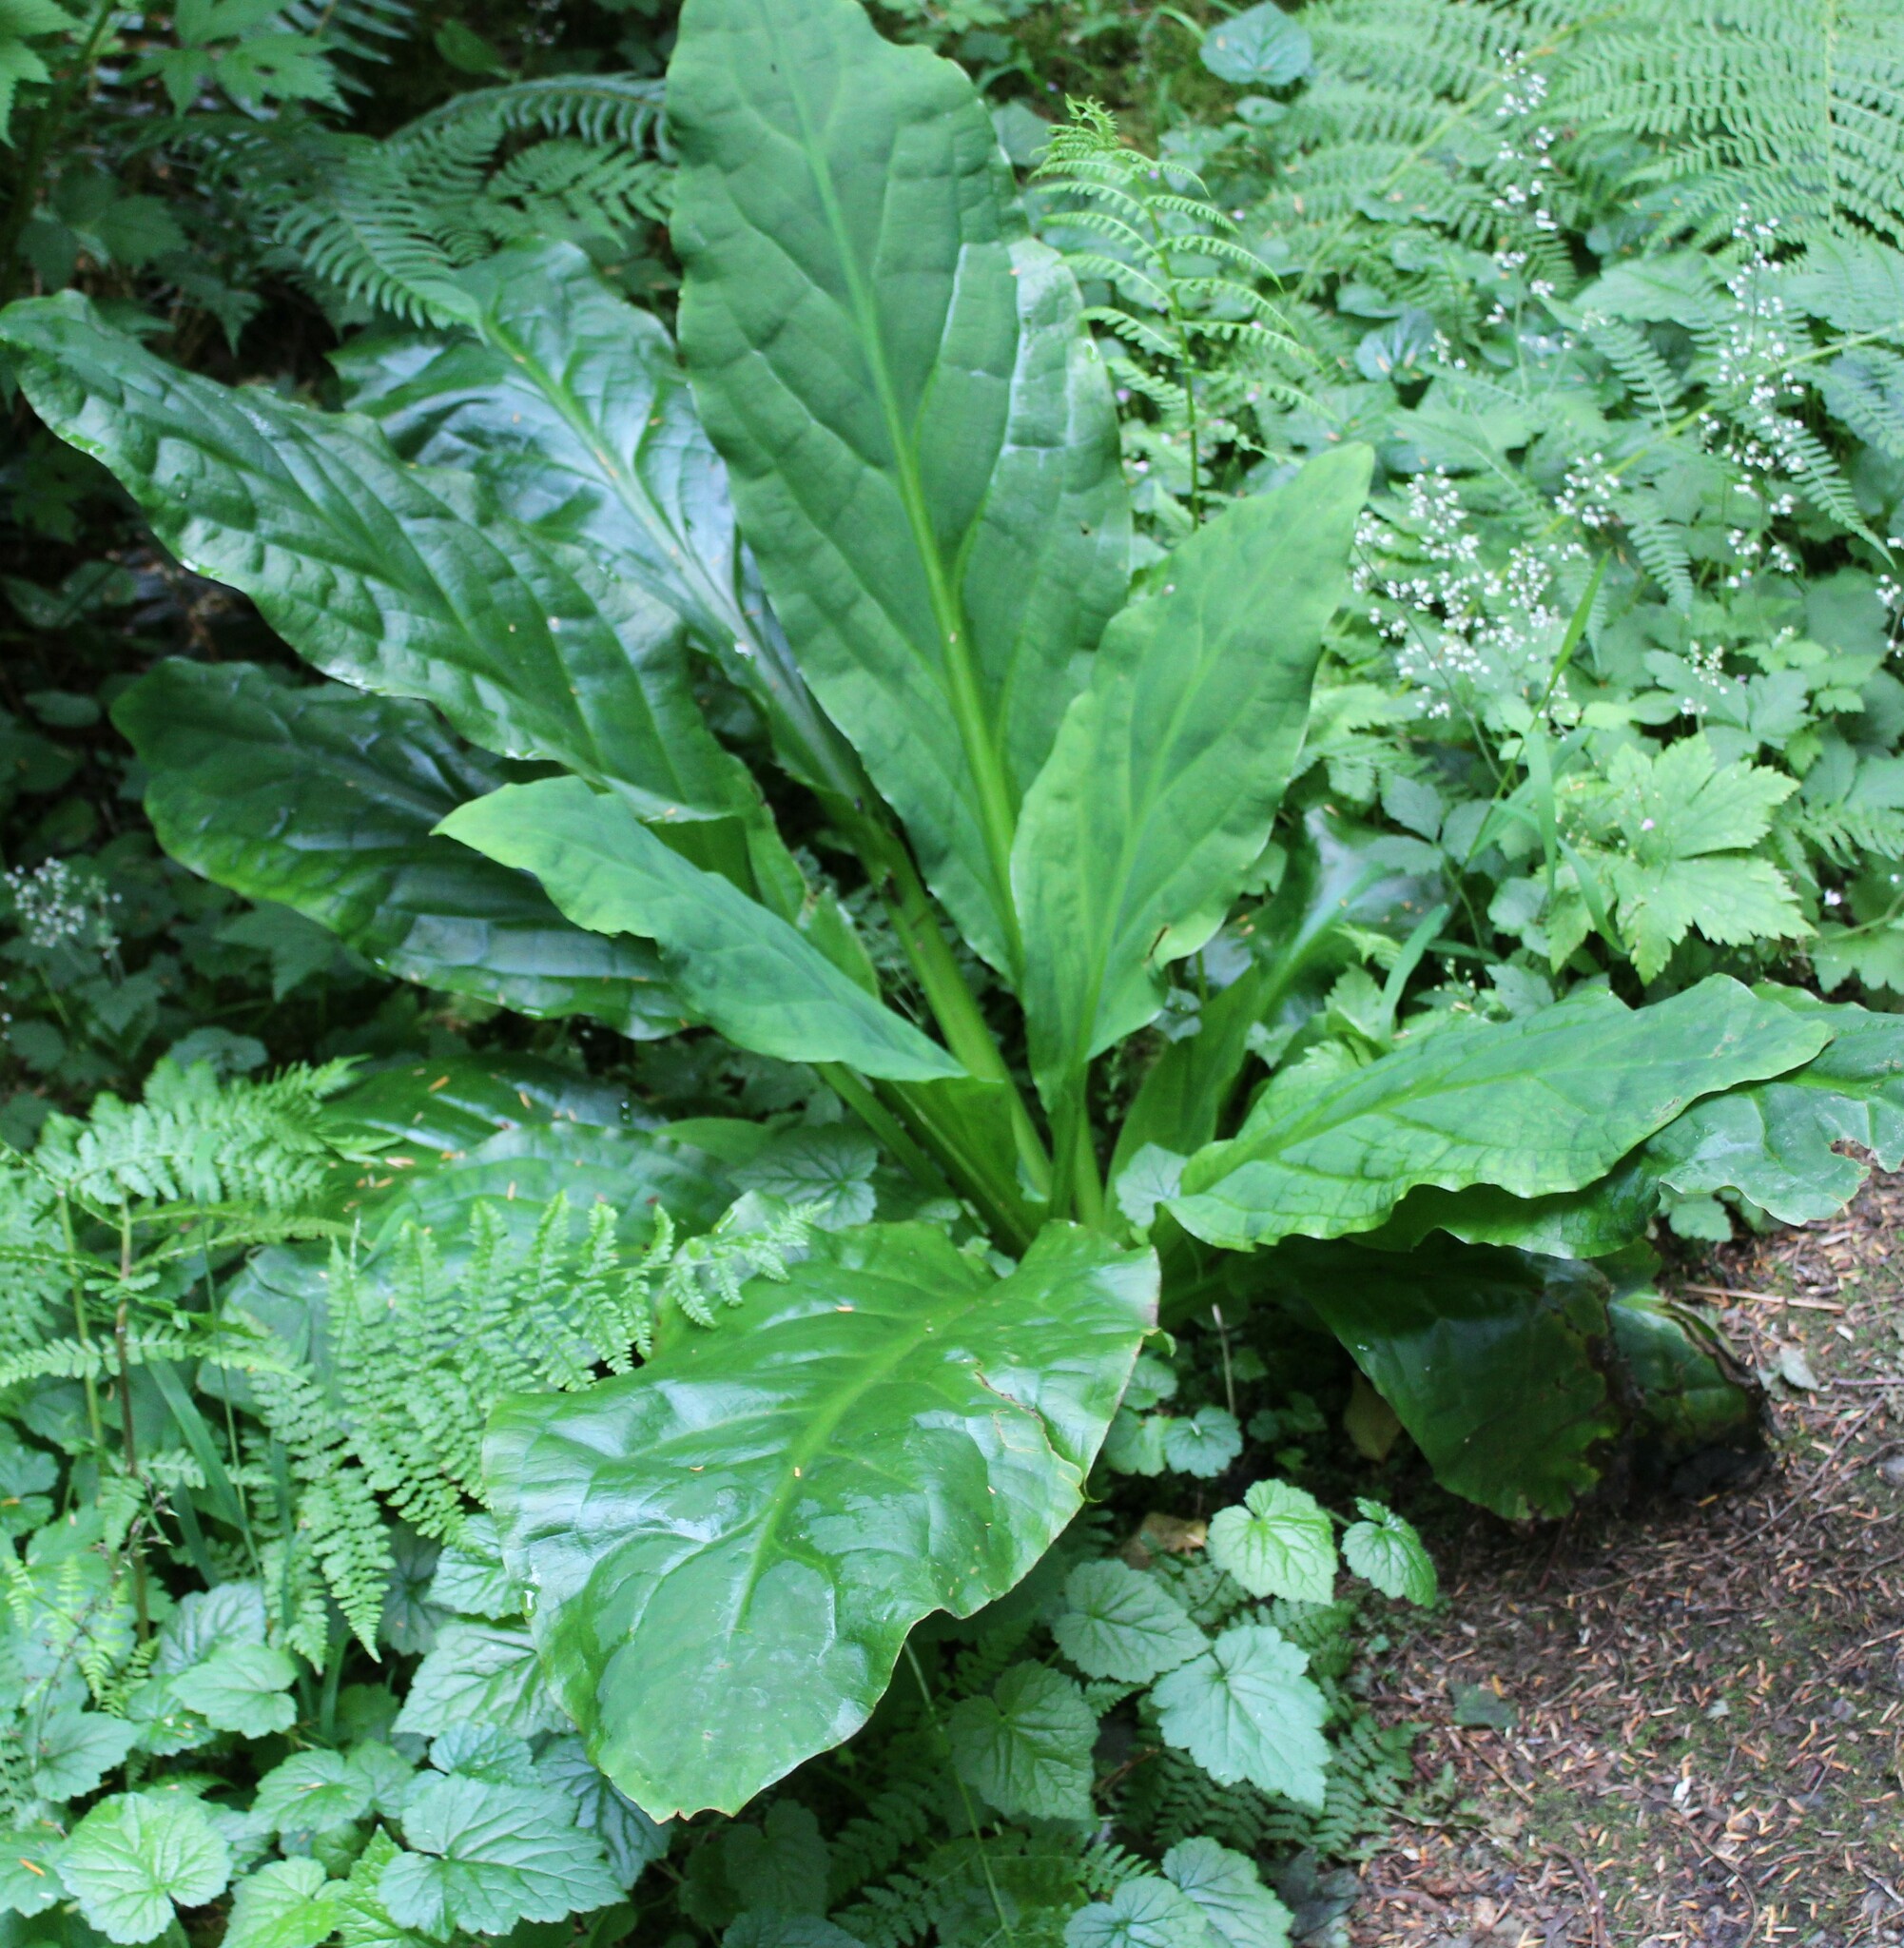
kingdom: Plantae
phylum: Tracheophyta
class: Liliopsida
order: Alismatales
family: Araceae
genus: Lysichiton
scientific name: Lysichiton americanus
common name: American skunk cabbage
